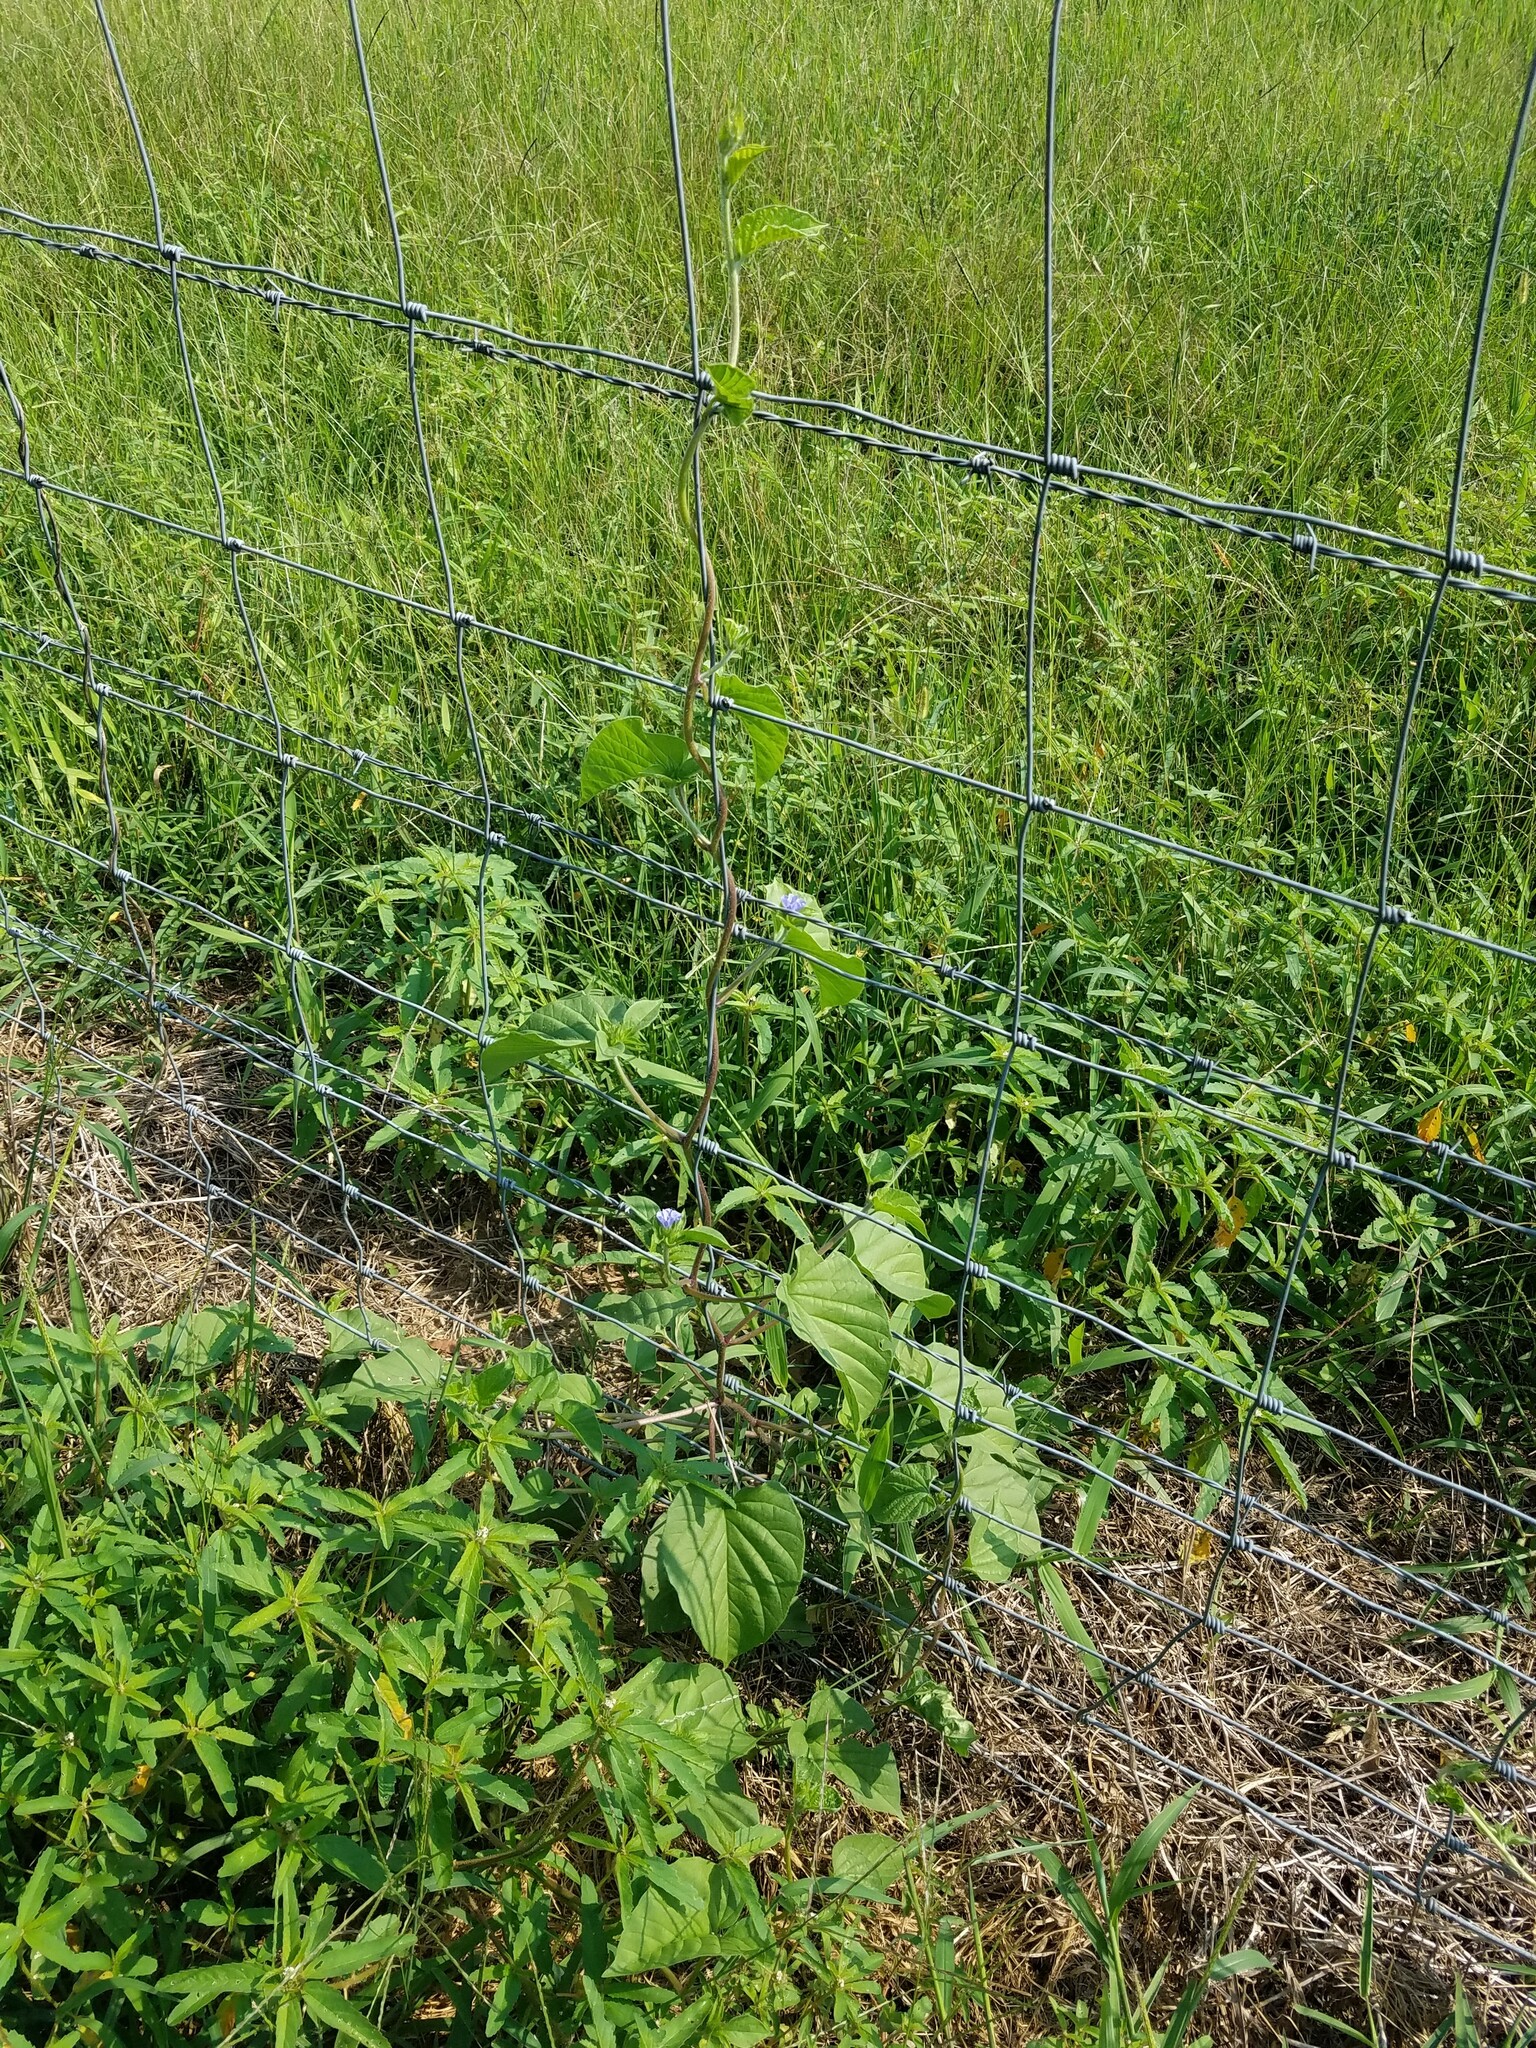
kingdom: Plantae
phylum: Tracheophyta
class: Magnoliopsida
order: Solanales
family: Convolvulaceae
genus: Jacquemontia
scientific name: Jacquemontia tamnifolia
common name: Hairy clustervine
